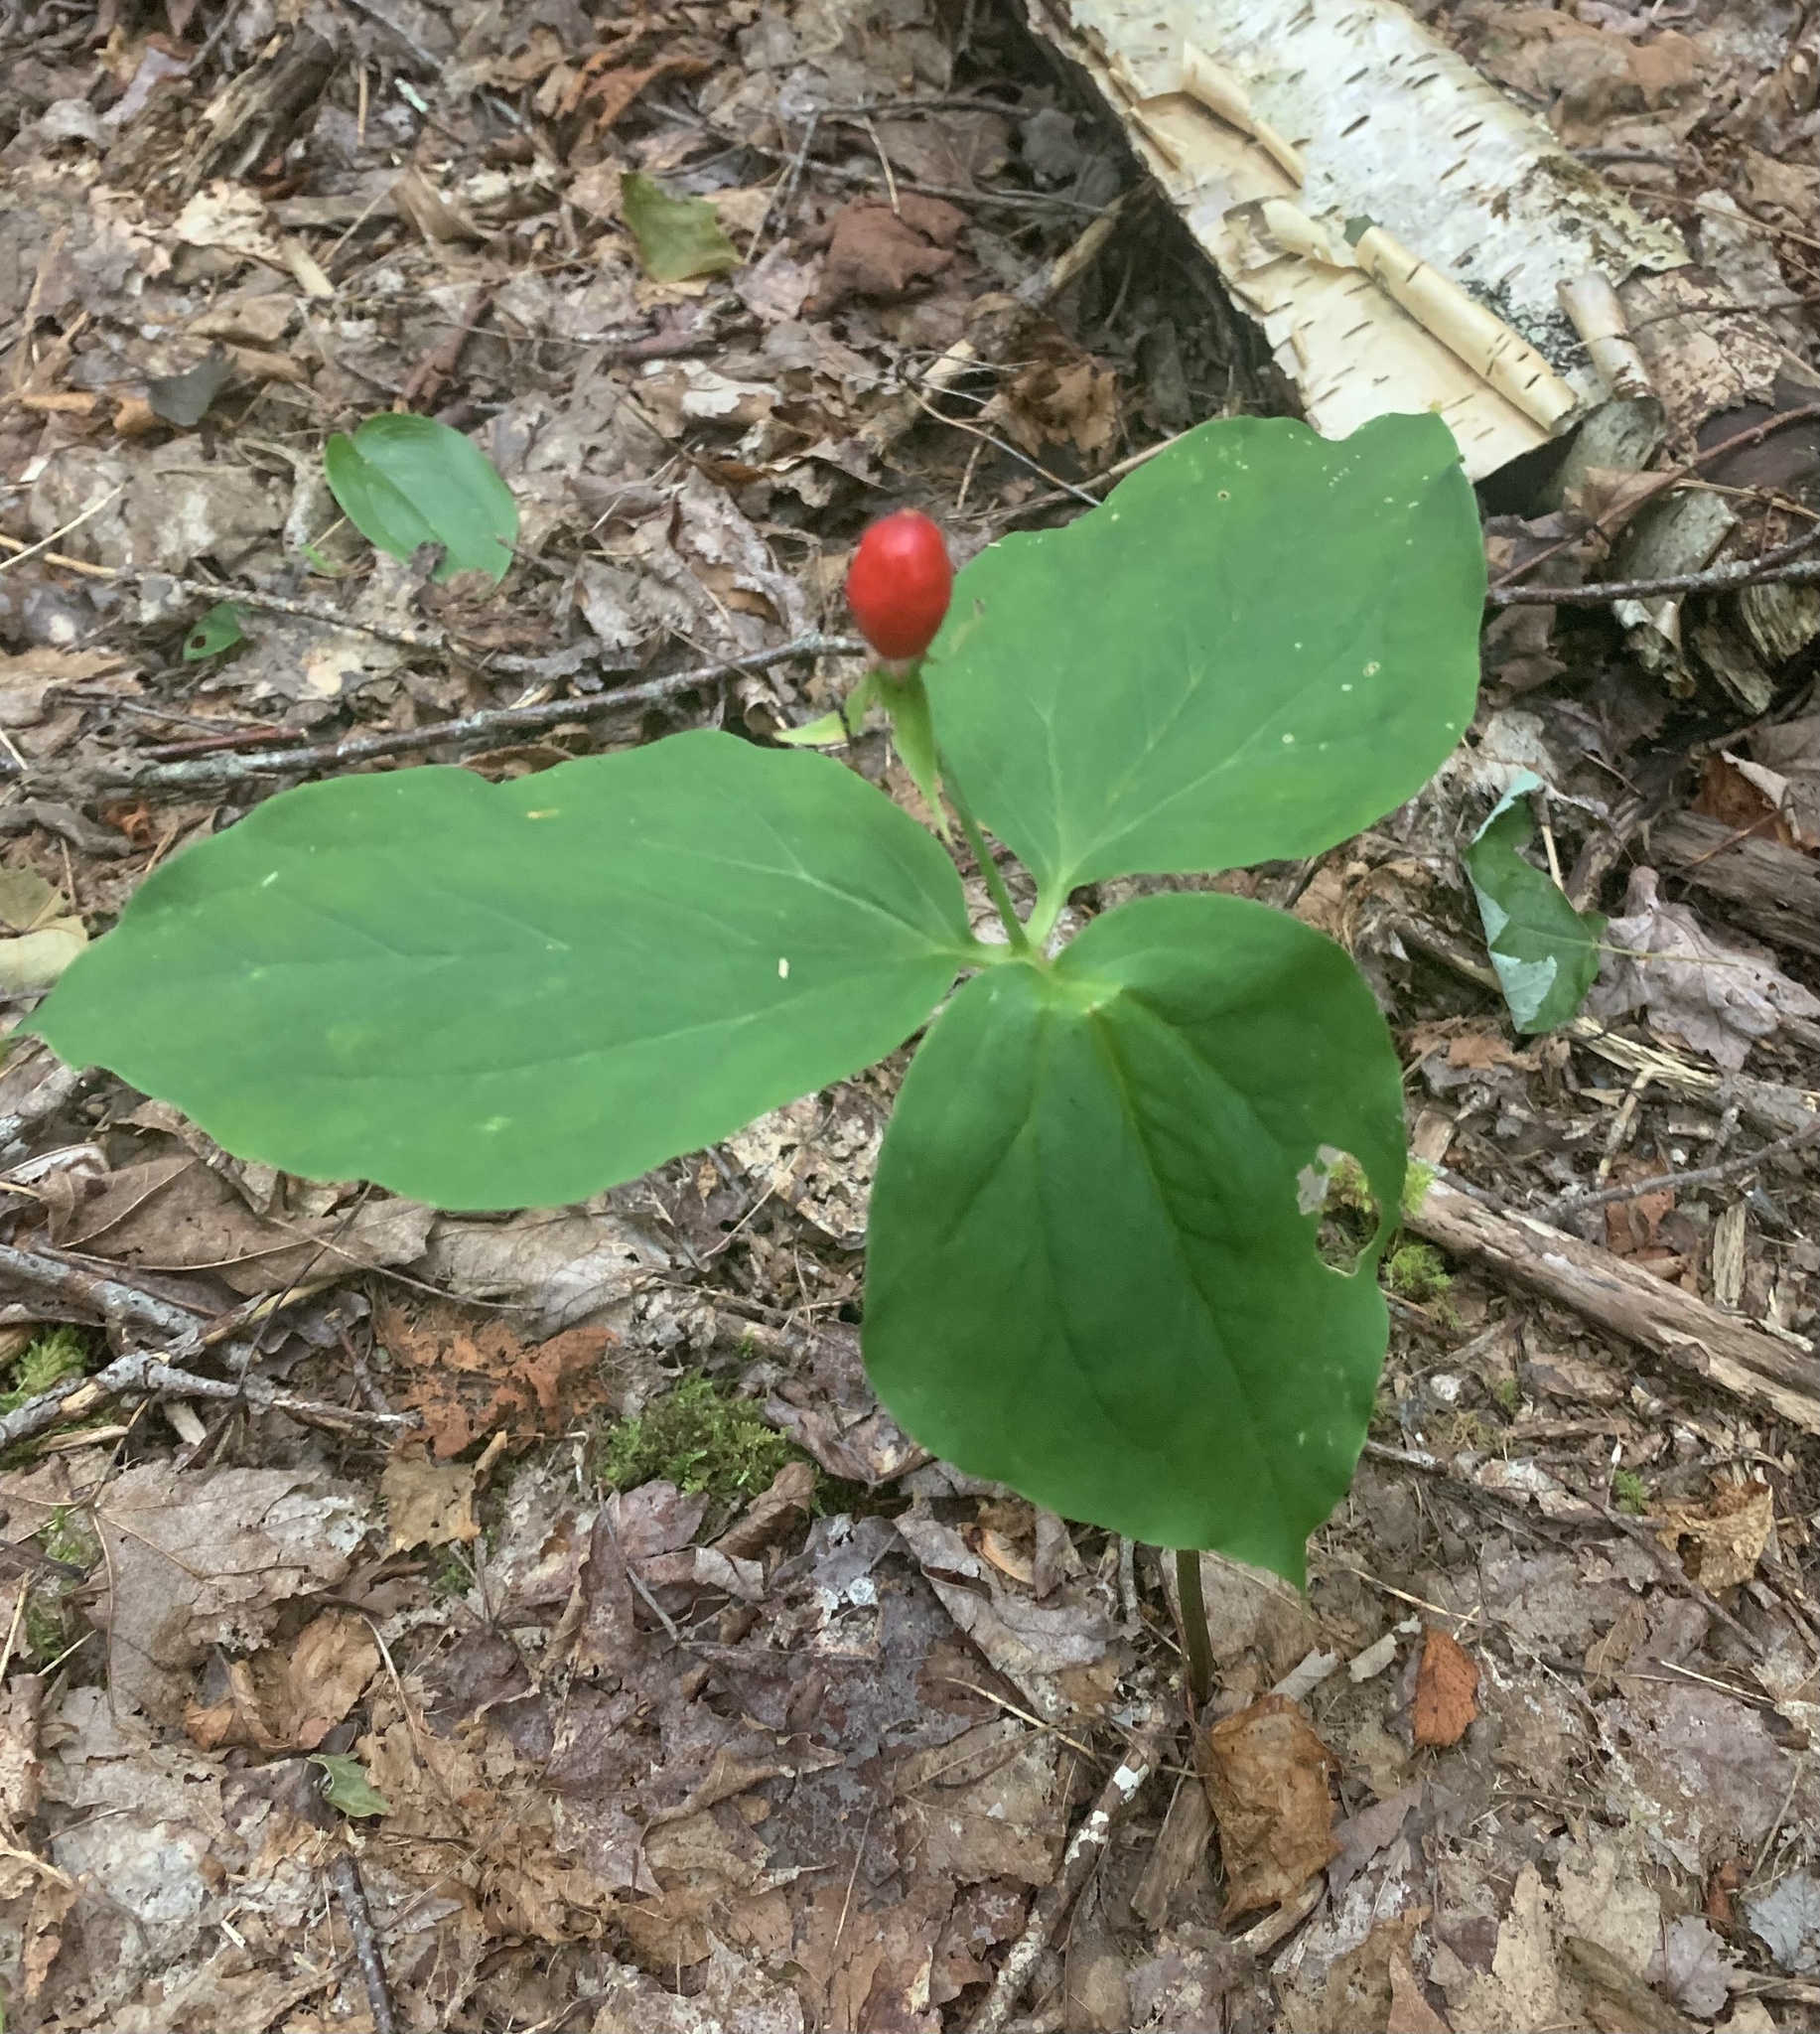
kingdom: Plantae
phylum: Tracheophyta
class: Liliopsida
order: Liliales
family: Melanthiaceae
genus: Trillium
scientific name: Trillium undulatum
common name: Paint trillium
